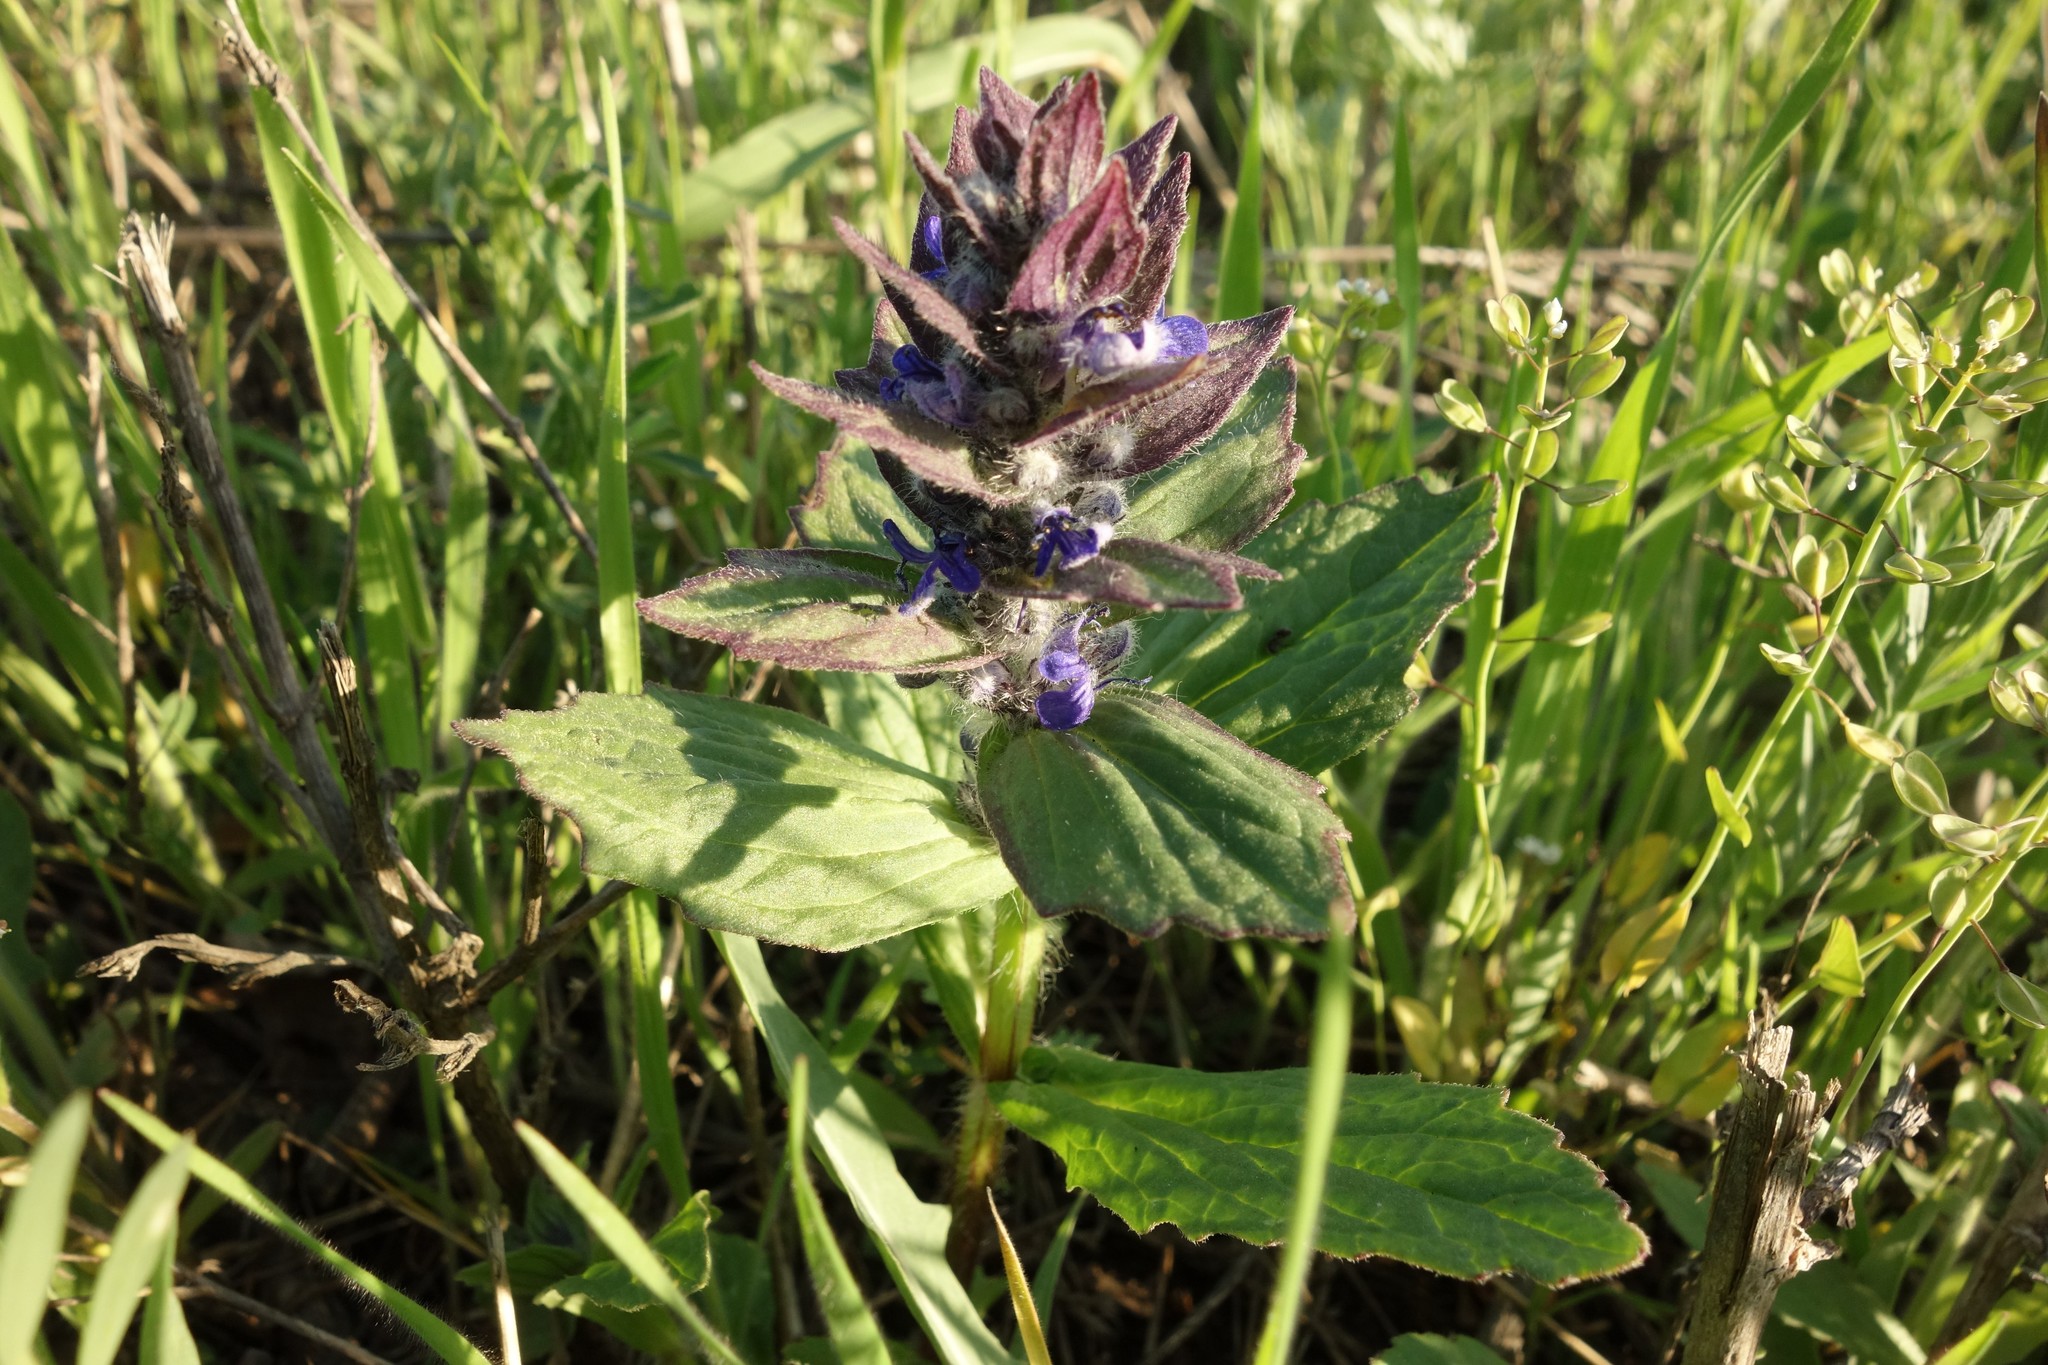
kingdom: Plantae
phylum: Tracheophyta
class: Magnoliopsida
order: Lamiales
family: Lamiaceae
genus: Ajuga
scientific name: Ajuga genevensis
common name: Blue bugle
